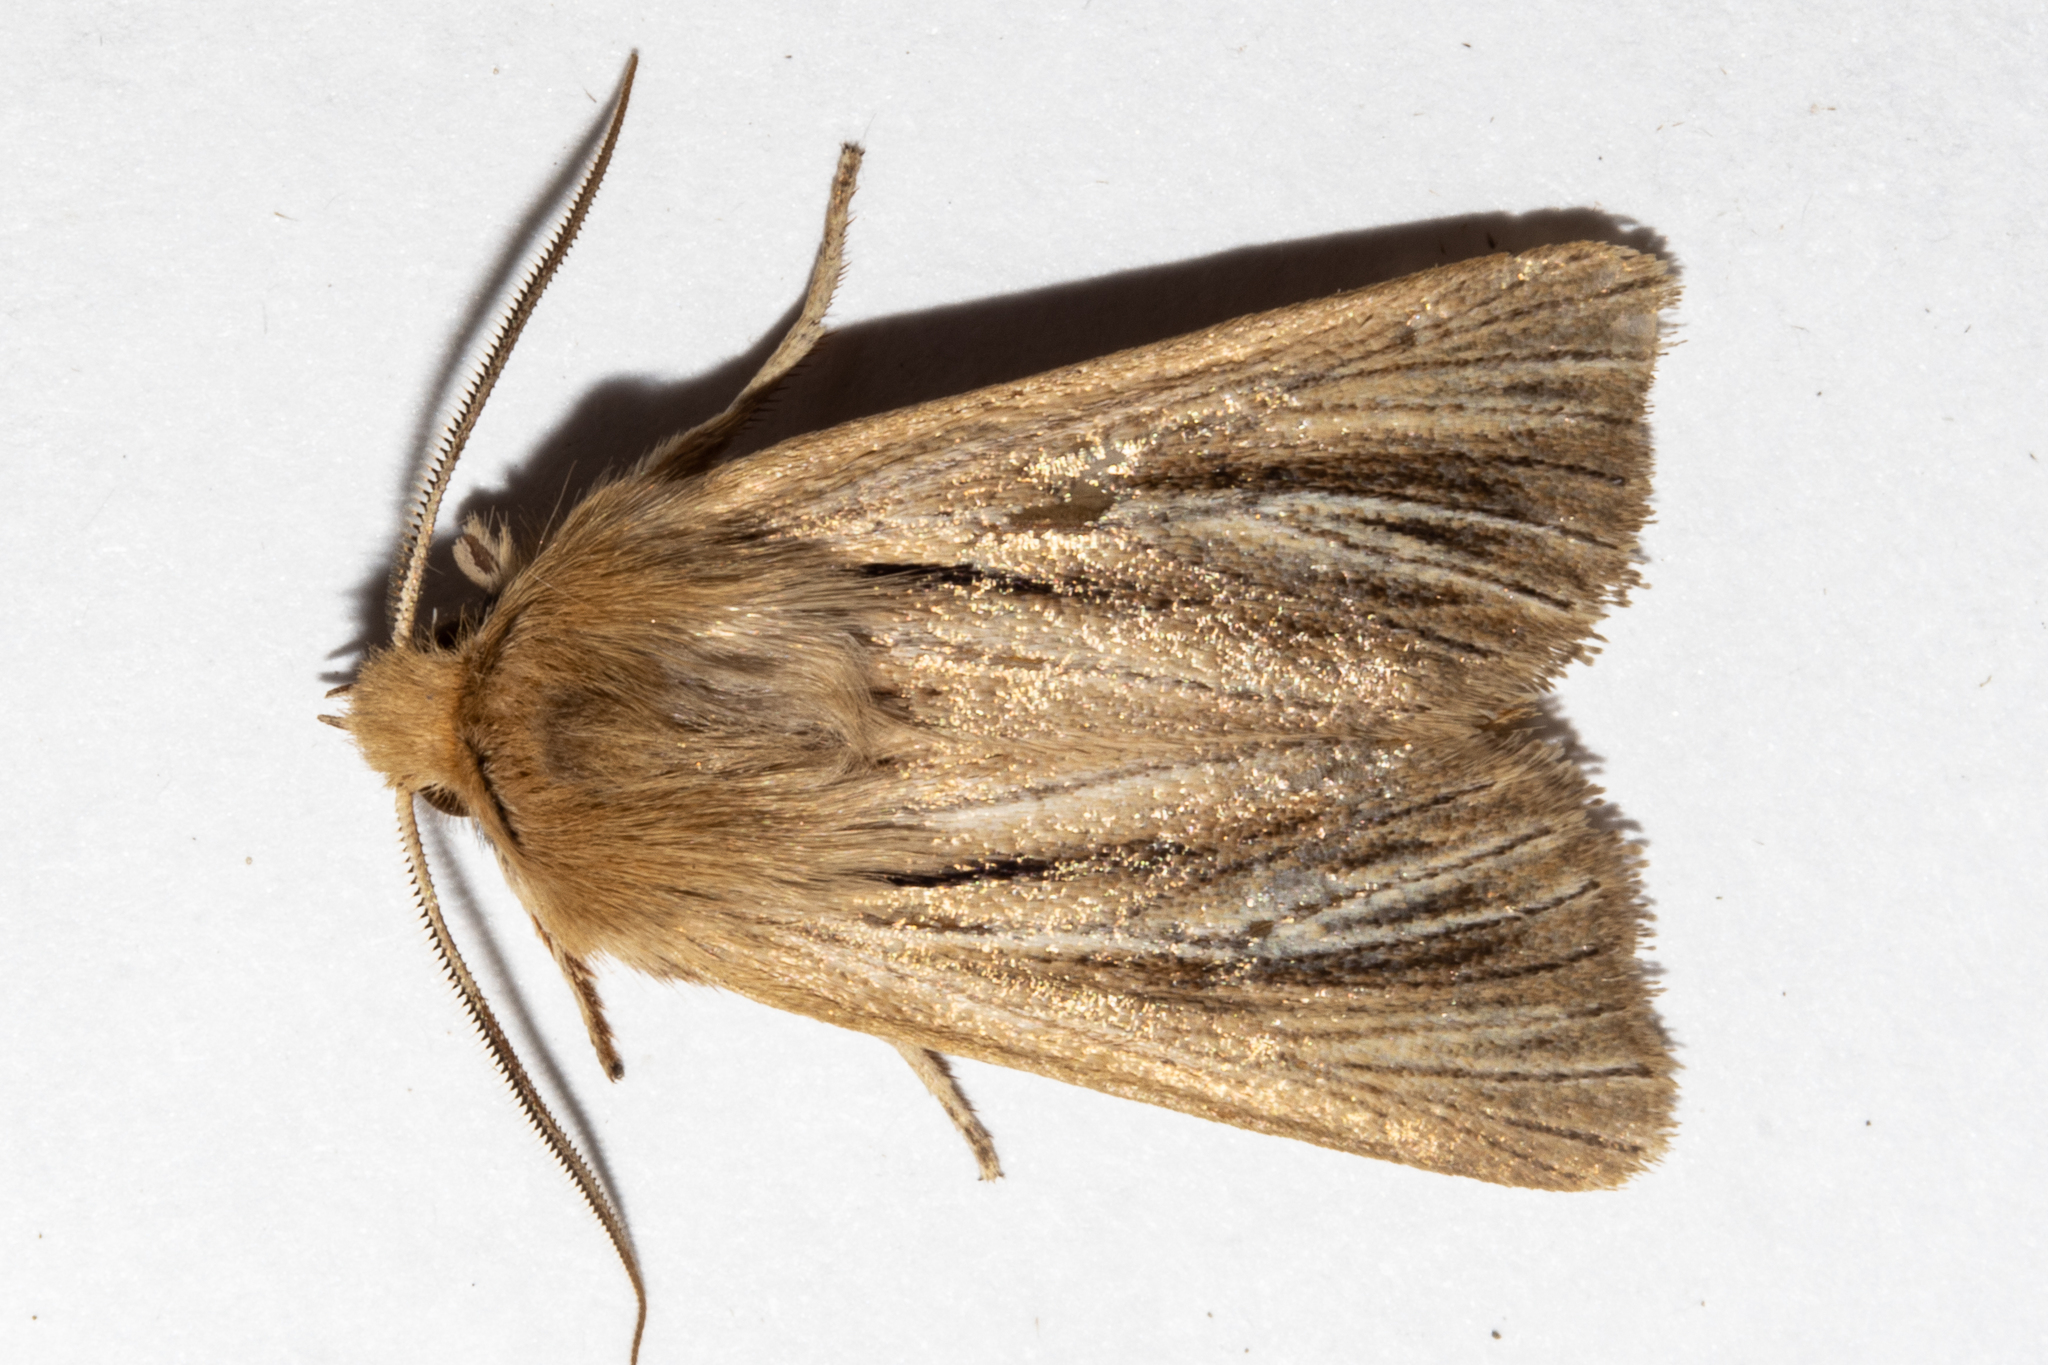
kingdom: Animalia
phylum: Arthropoda
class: Insecta
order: Lepidoptera
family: Noctuidae
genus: Ichneutica
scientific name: Ichneutica
